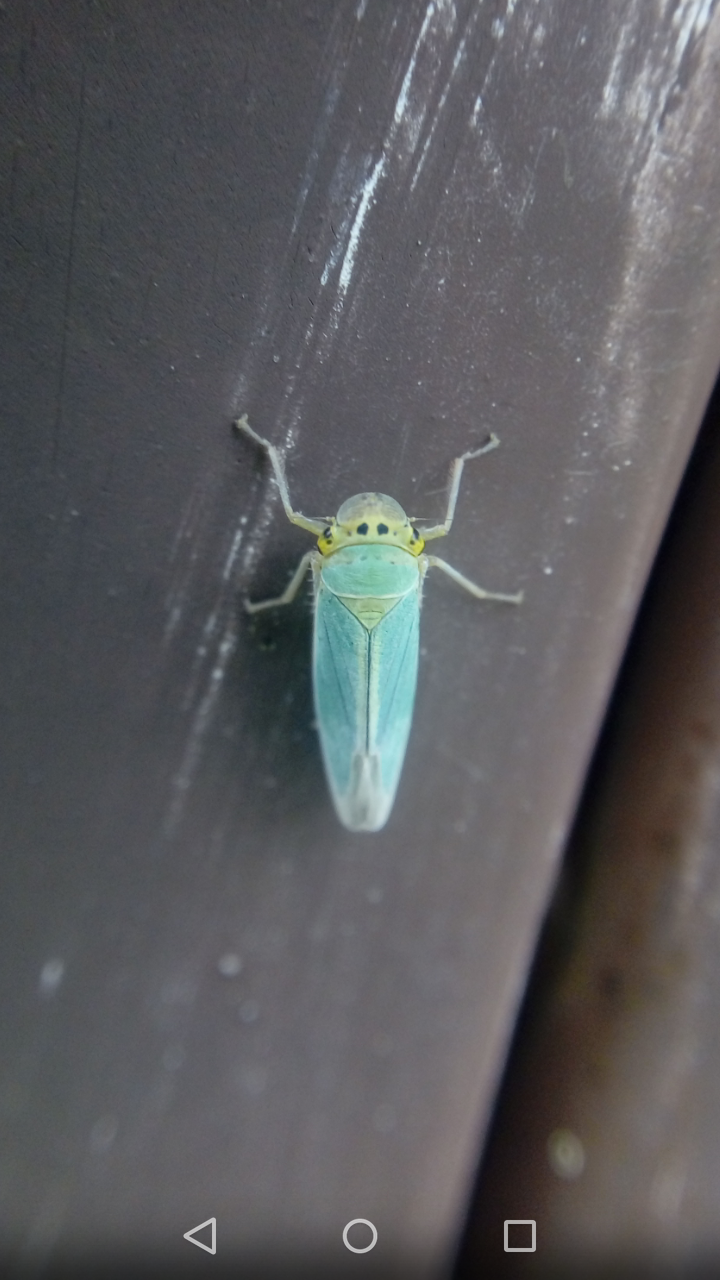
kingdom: Animalia
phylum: Arthropoda
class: Insecta
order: Hemiptera
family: Cicadellidae
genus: Cicadella
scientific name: Cicadella viridis
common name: Leafhopper
